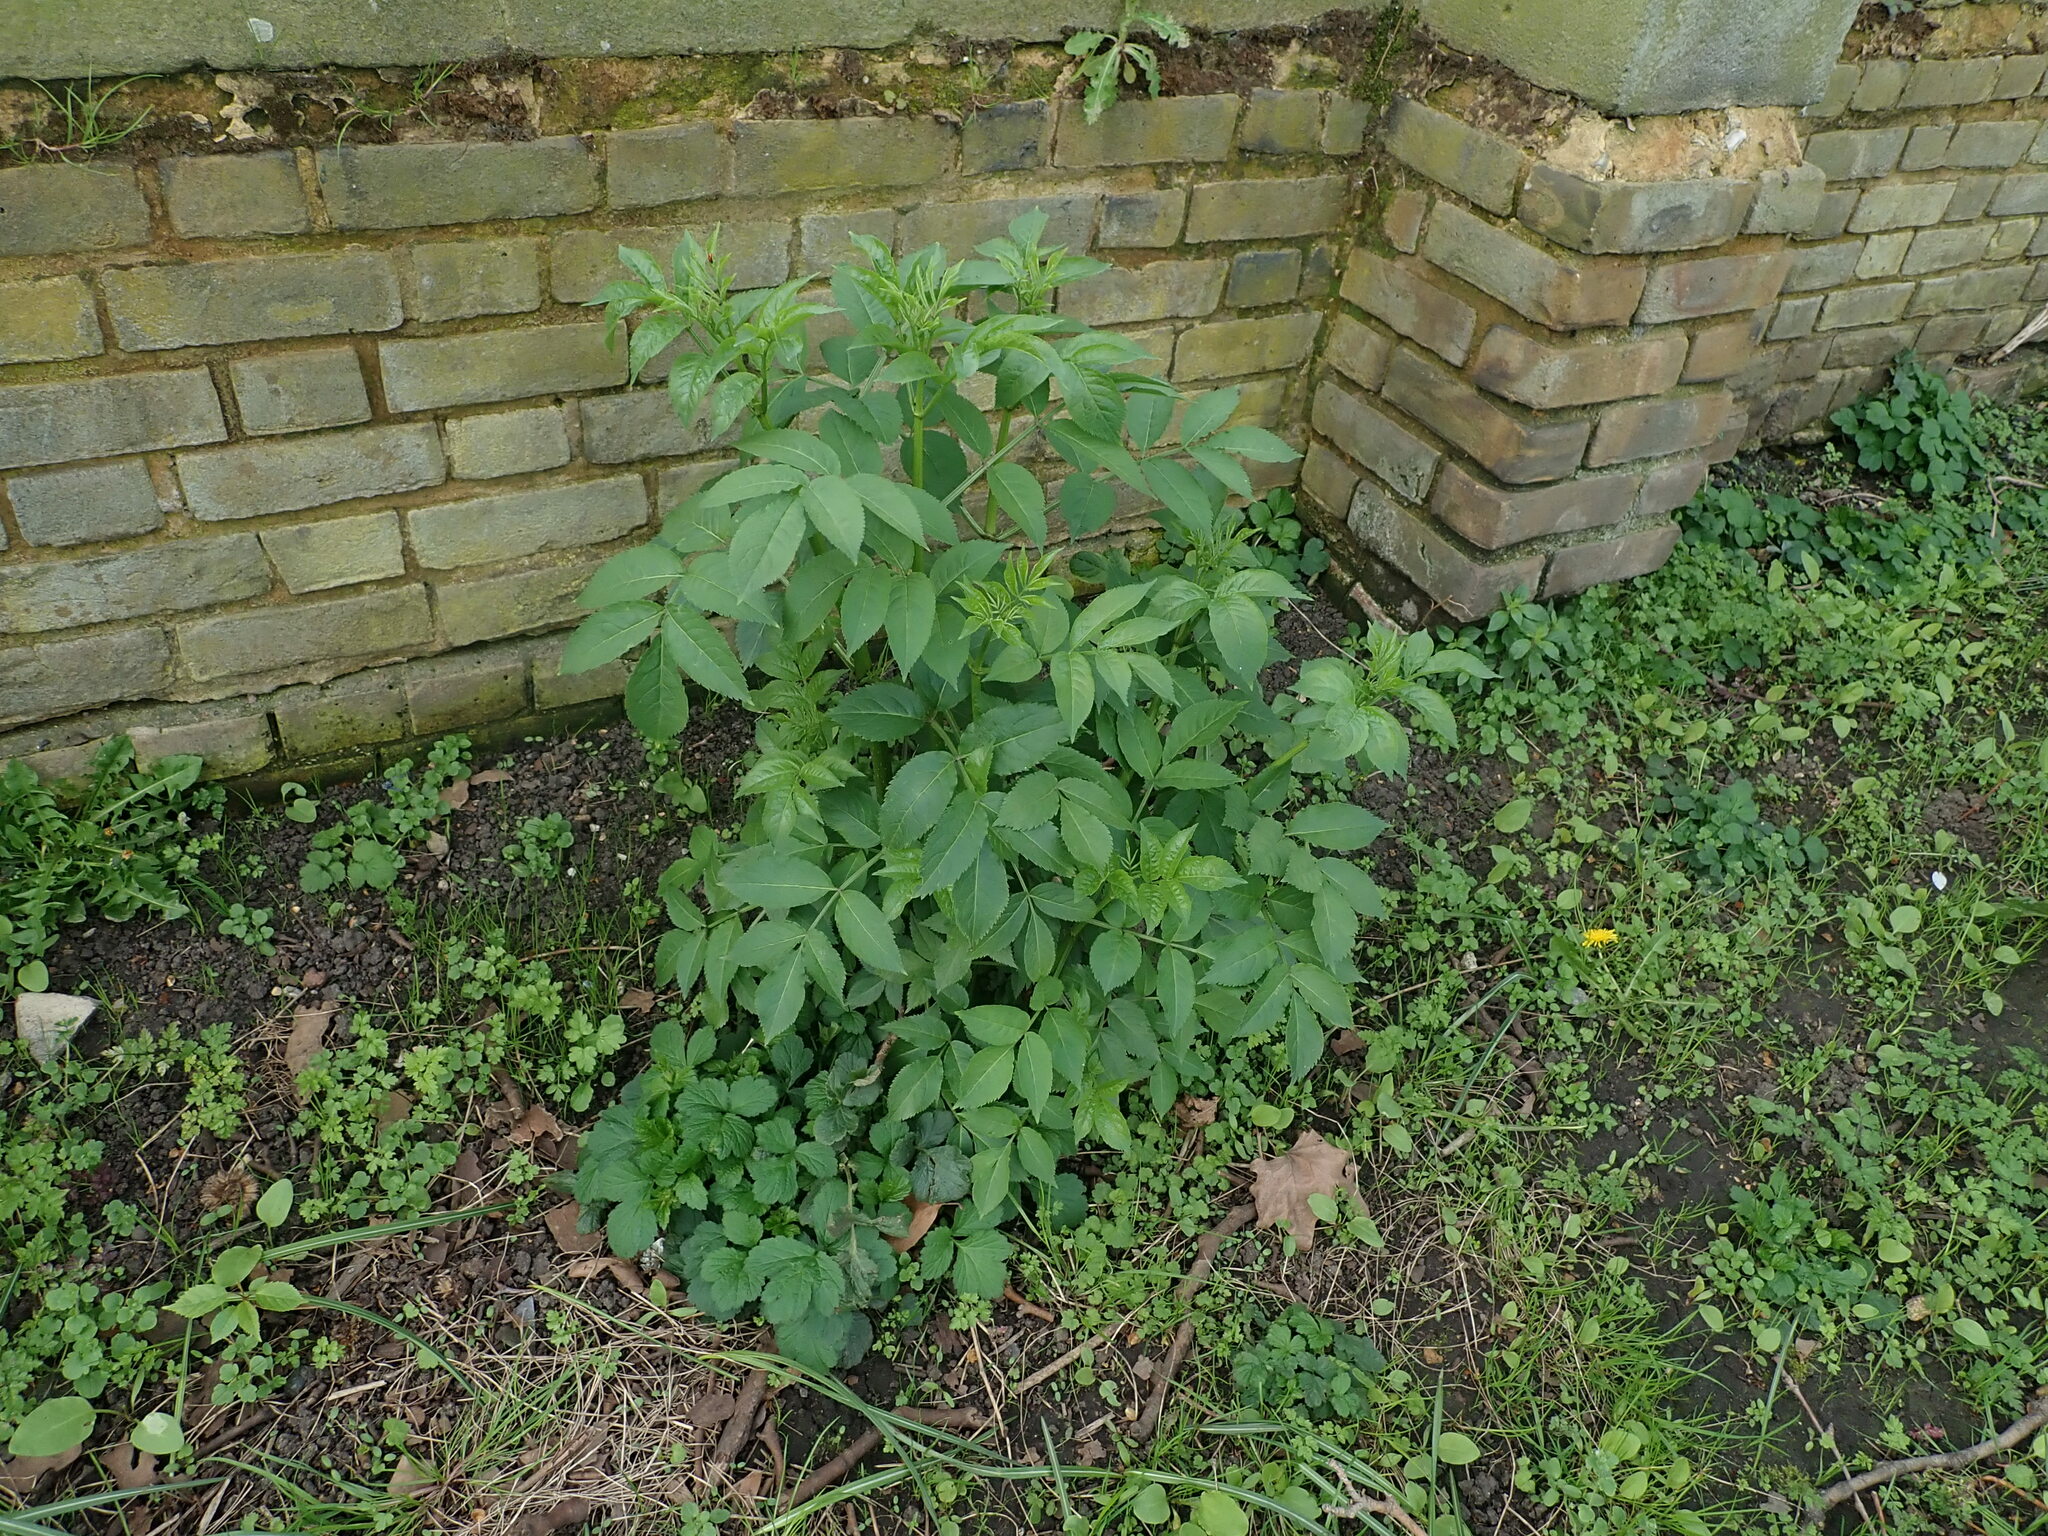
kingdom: Plantae
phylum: Tracheophyta
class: Magnoliopsida
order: Dipsacales
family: Viburnaceae
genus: Sambucus
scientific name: Sambucus nigra
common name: Elder
